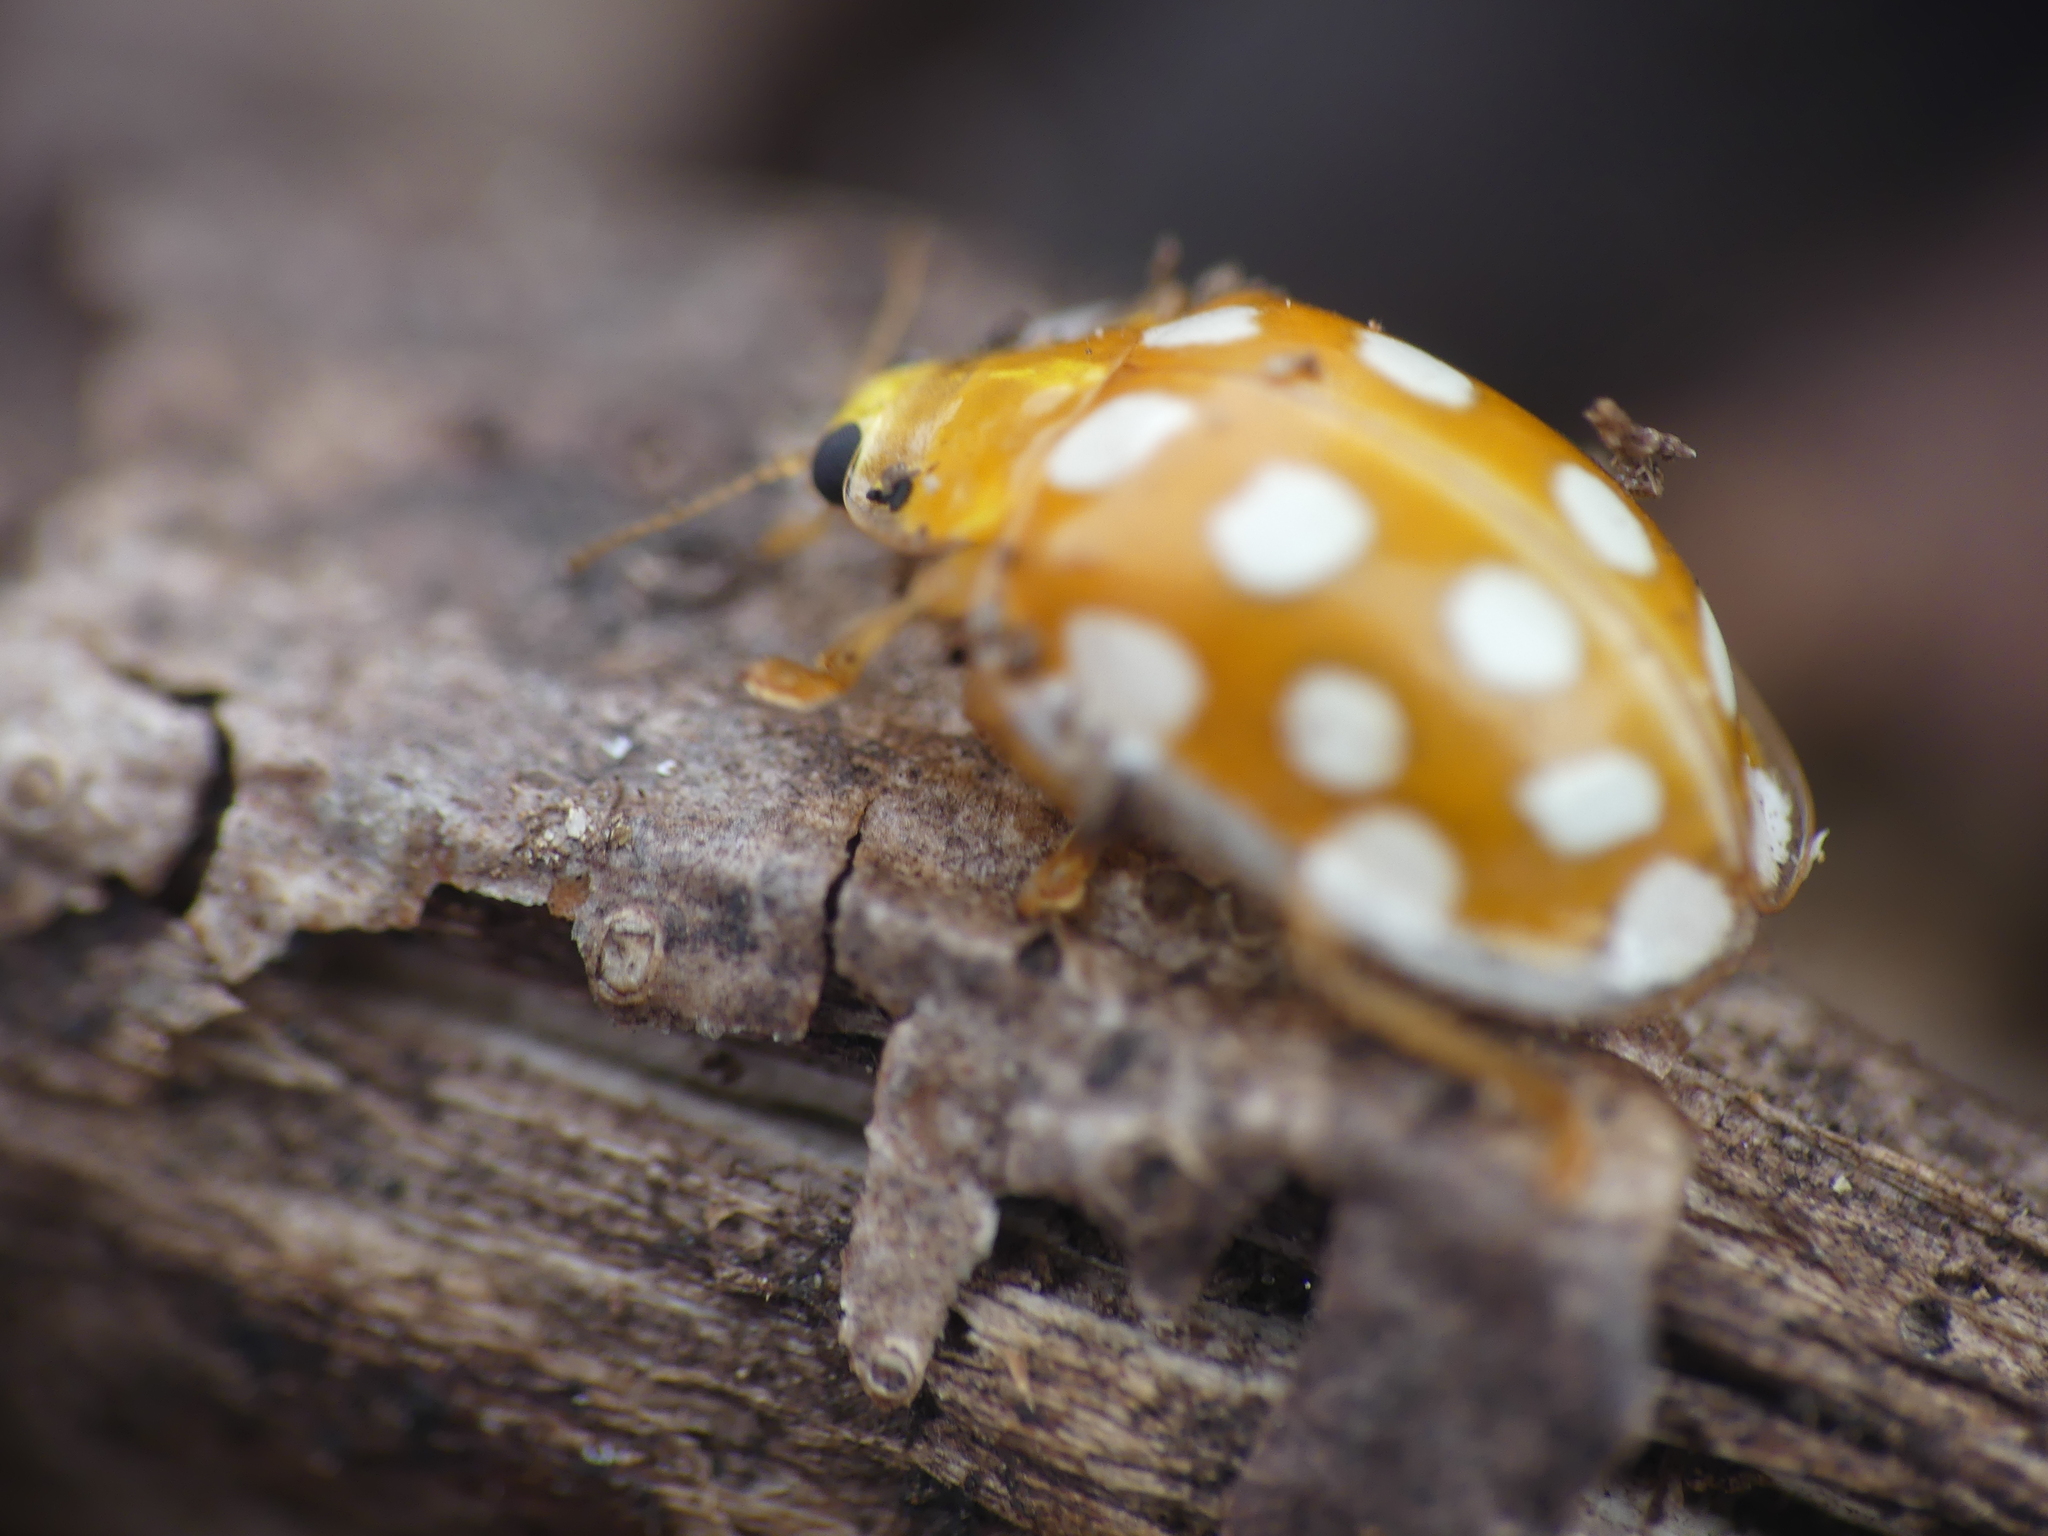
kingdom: Animalia
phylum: Arthropoda
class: Insecta
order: Coleoptera
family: Coccinellidae
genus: Halyzia
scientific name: Halyzia sedecimguttata
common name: Orange ladybird
